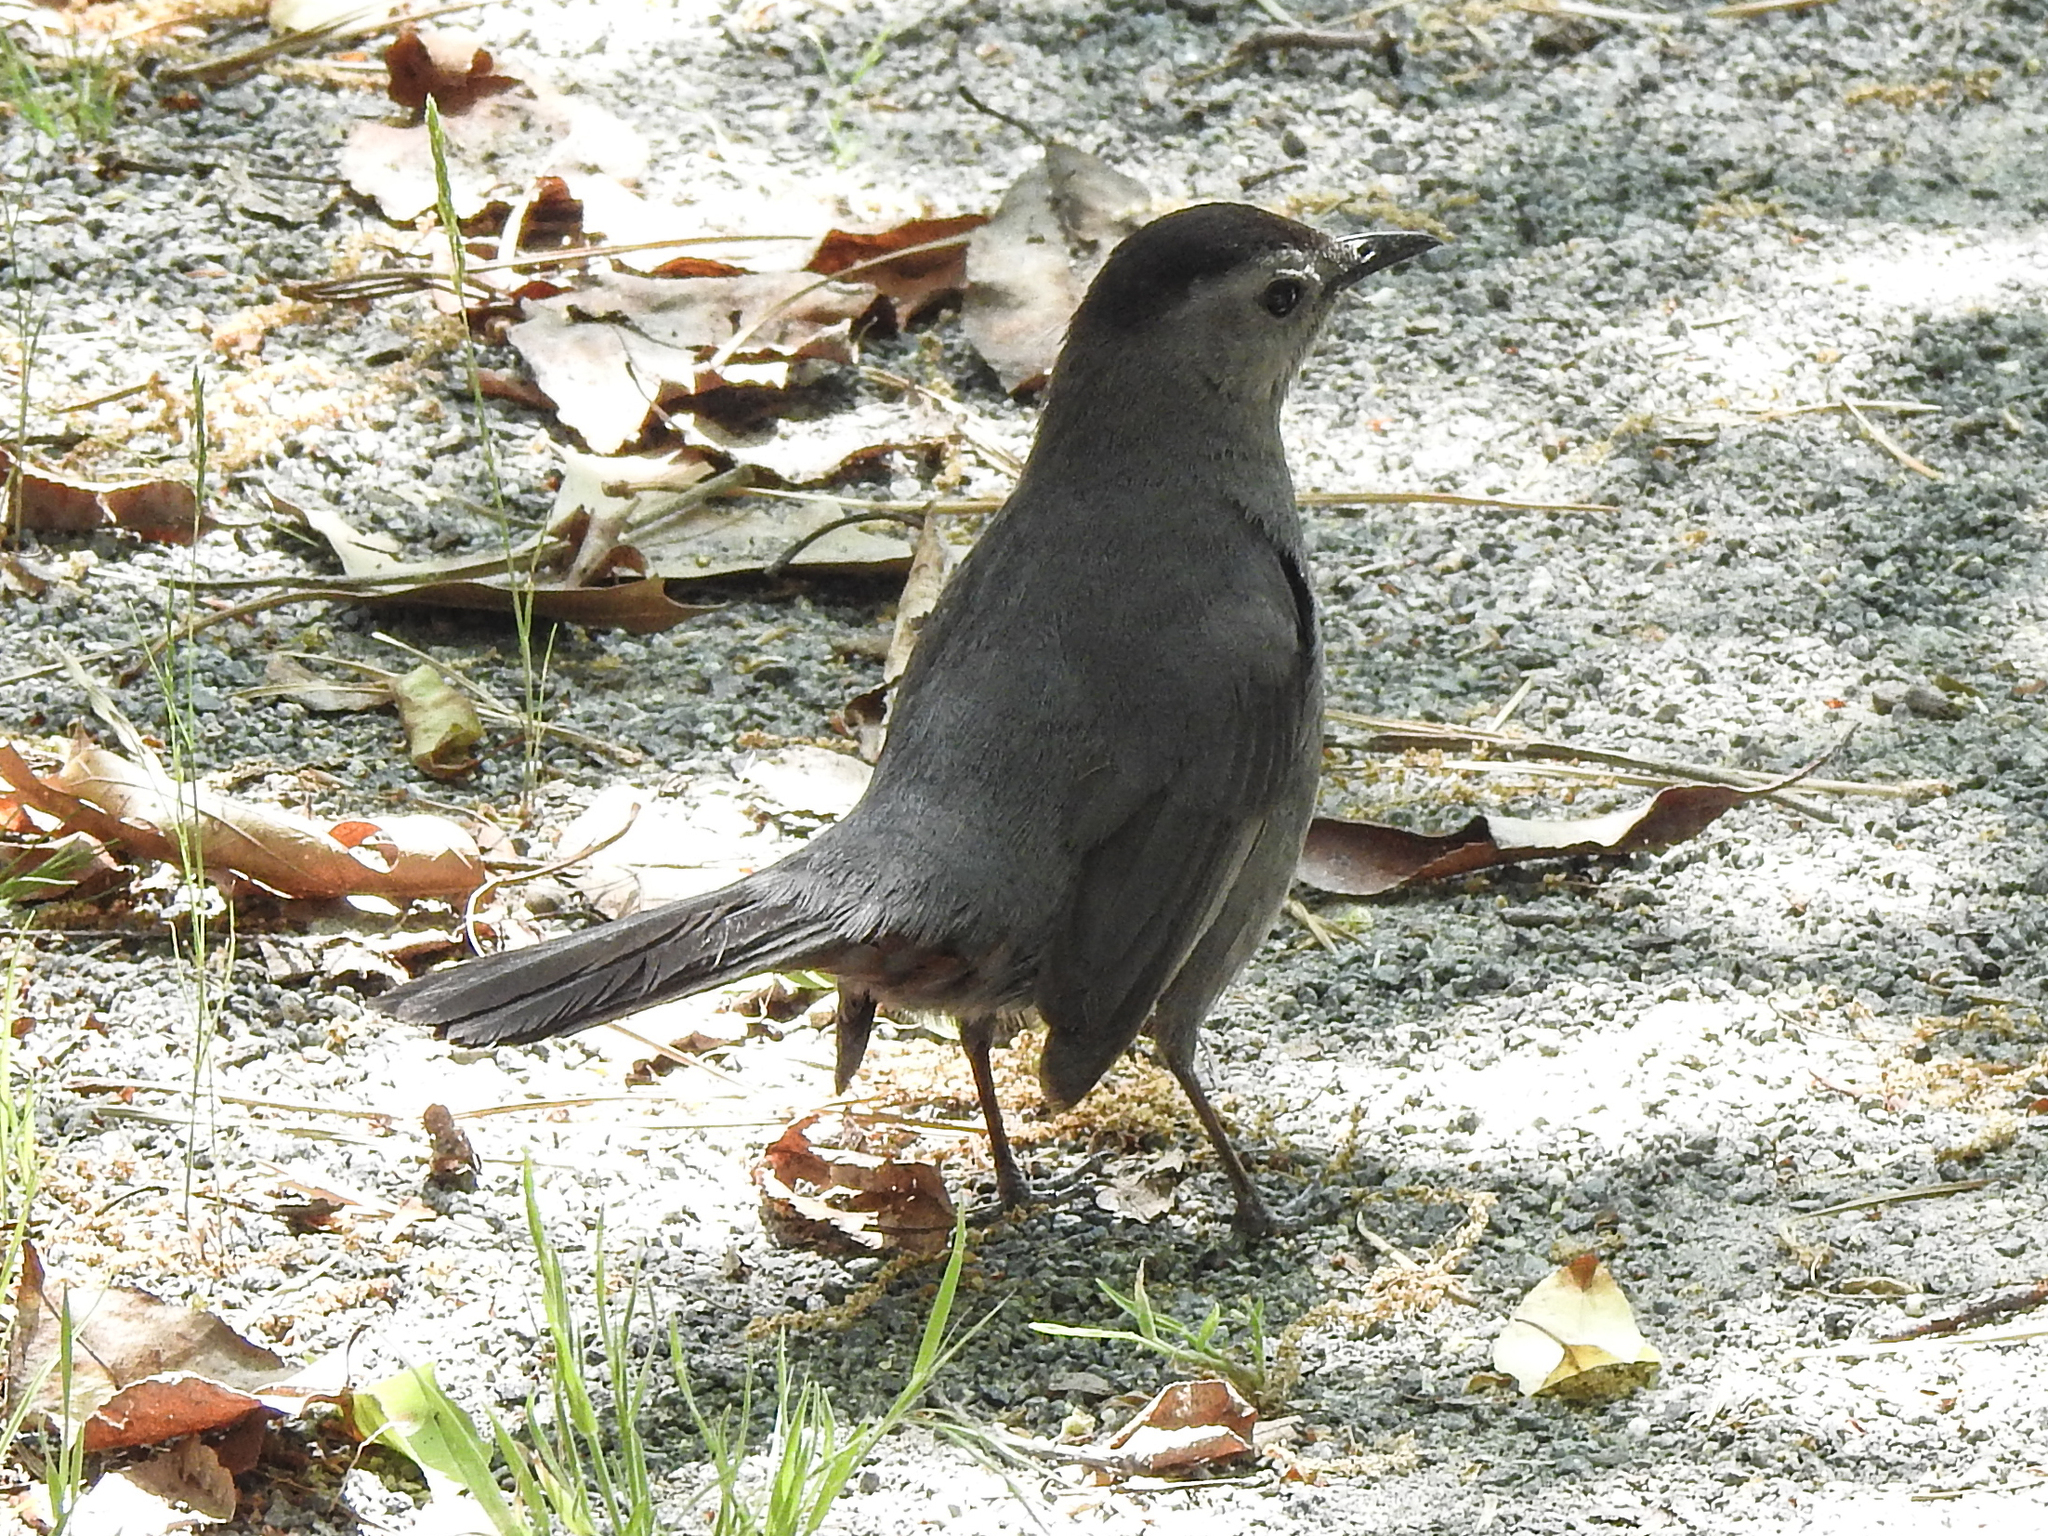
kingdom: Animalia
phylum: Chordata
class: Aves
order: Passeriformes
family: Mimidae
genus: Dumetella
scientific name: Dumetella carolinensis
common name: Gray catbird
